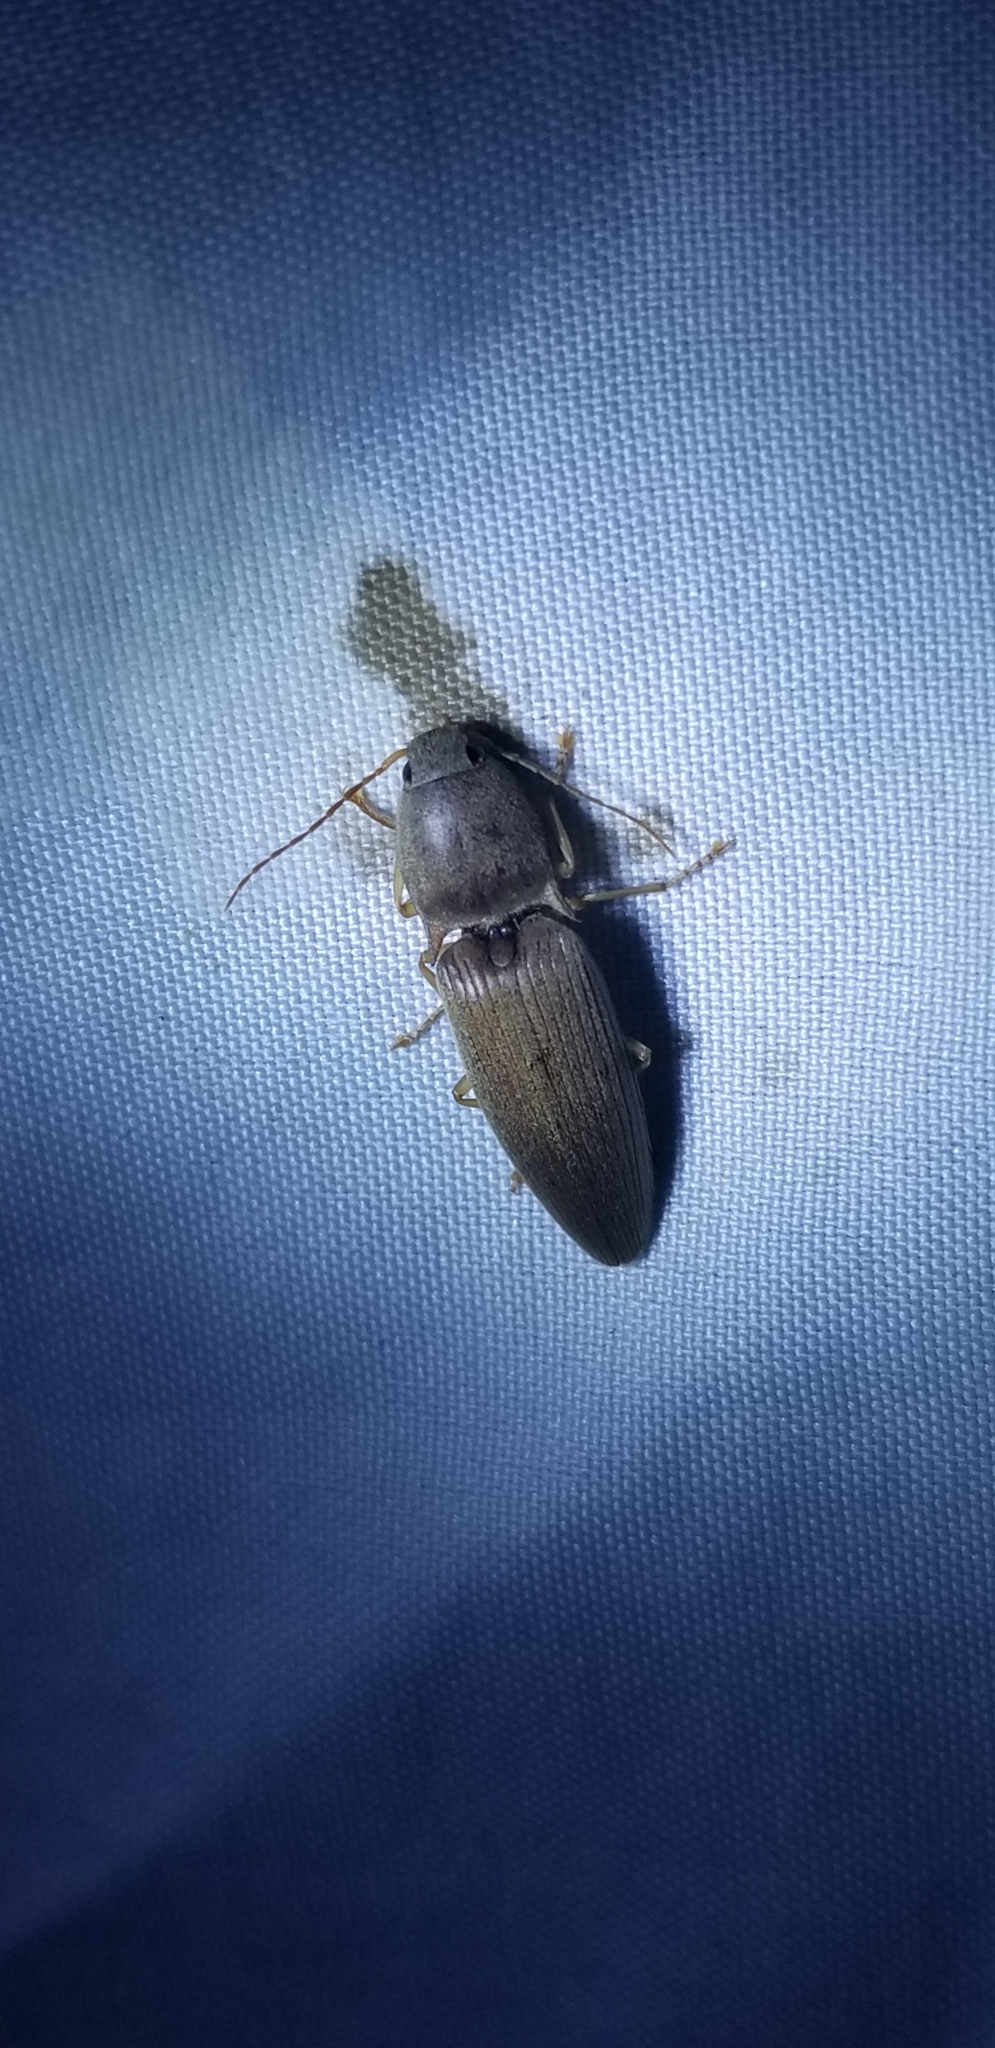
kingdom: Animalia
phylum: Arthropoda
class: Insecta
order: Coleoptera
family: Elateridae
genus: Monocrepidius
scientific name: Monocrepidius lividus
